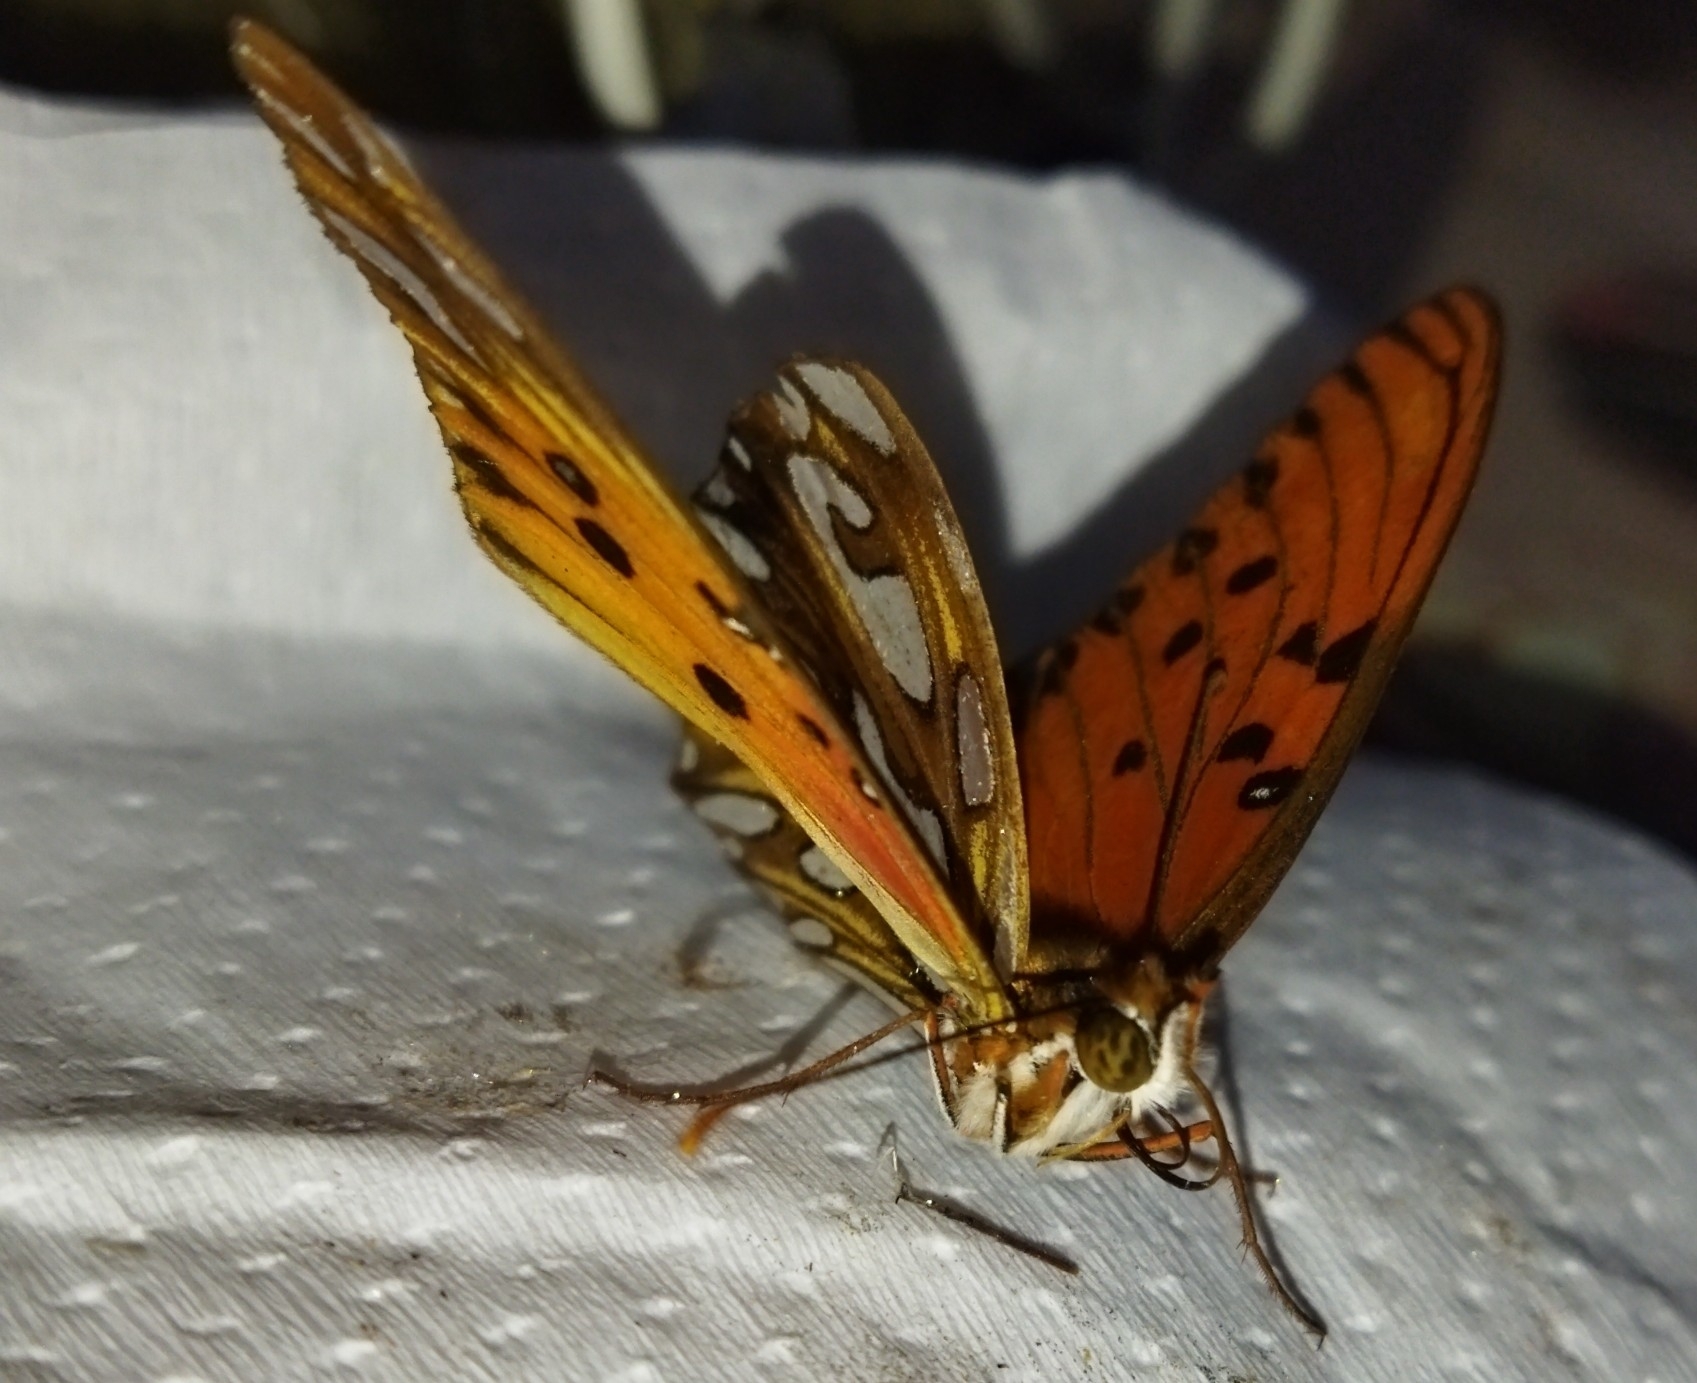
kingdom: Animalia
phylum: Arthropoda
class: Insecta
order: Lepidoptera
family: Nymphalidae
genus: Dione
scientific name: Dione vanillae
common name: Gulf fritillary
